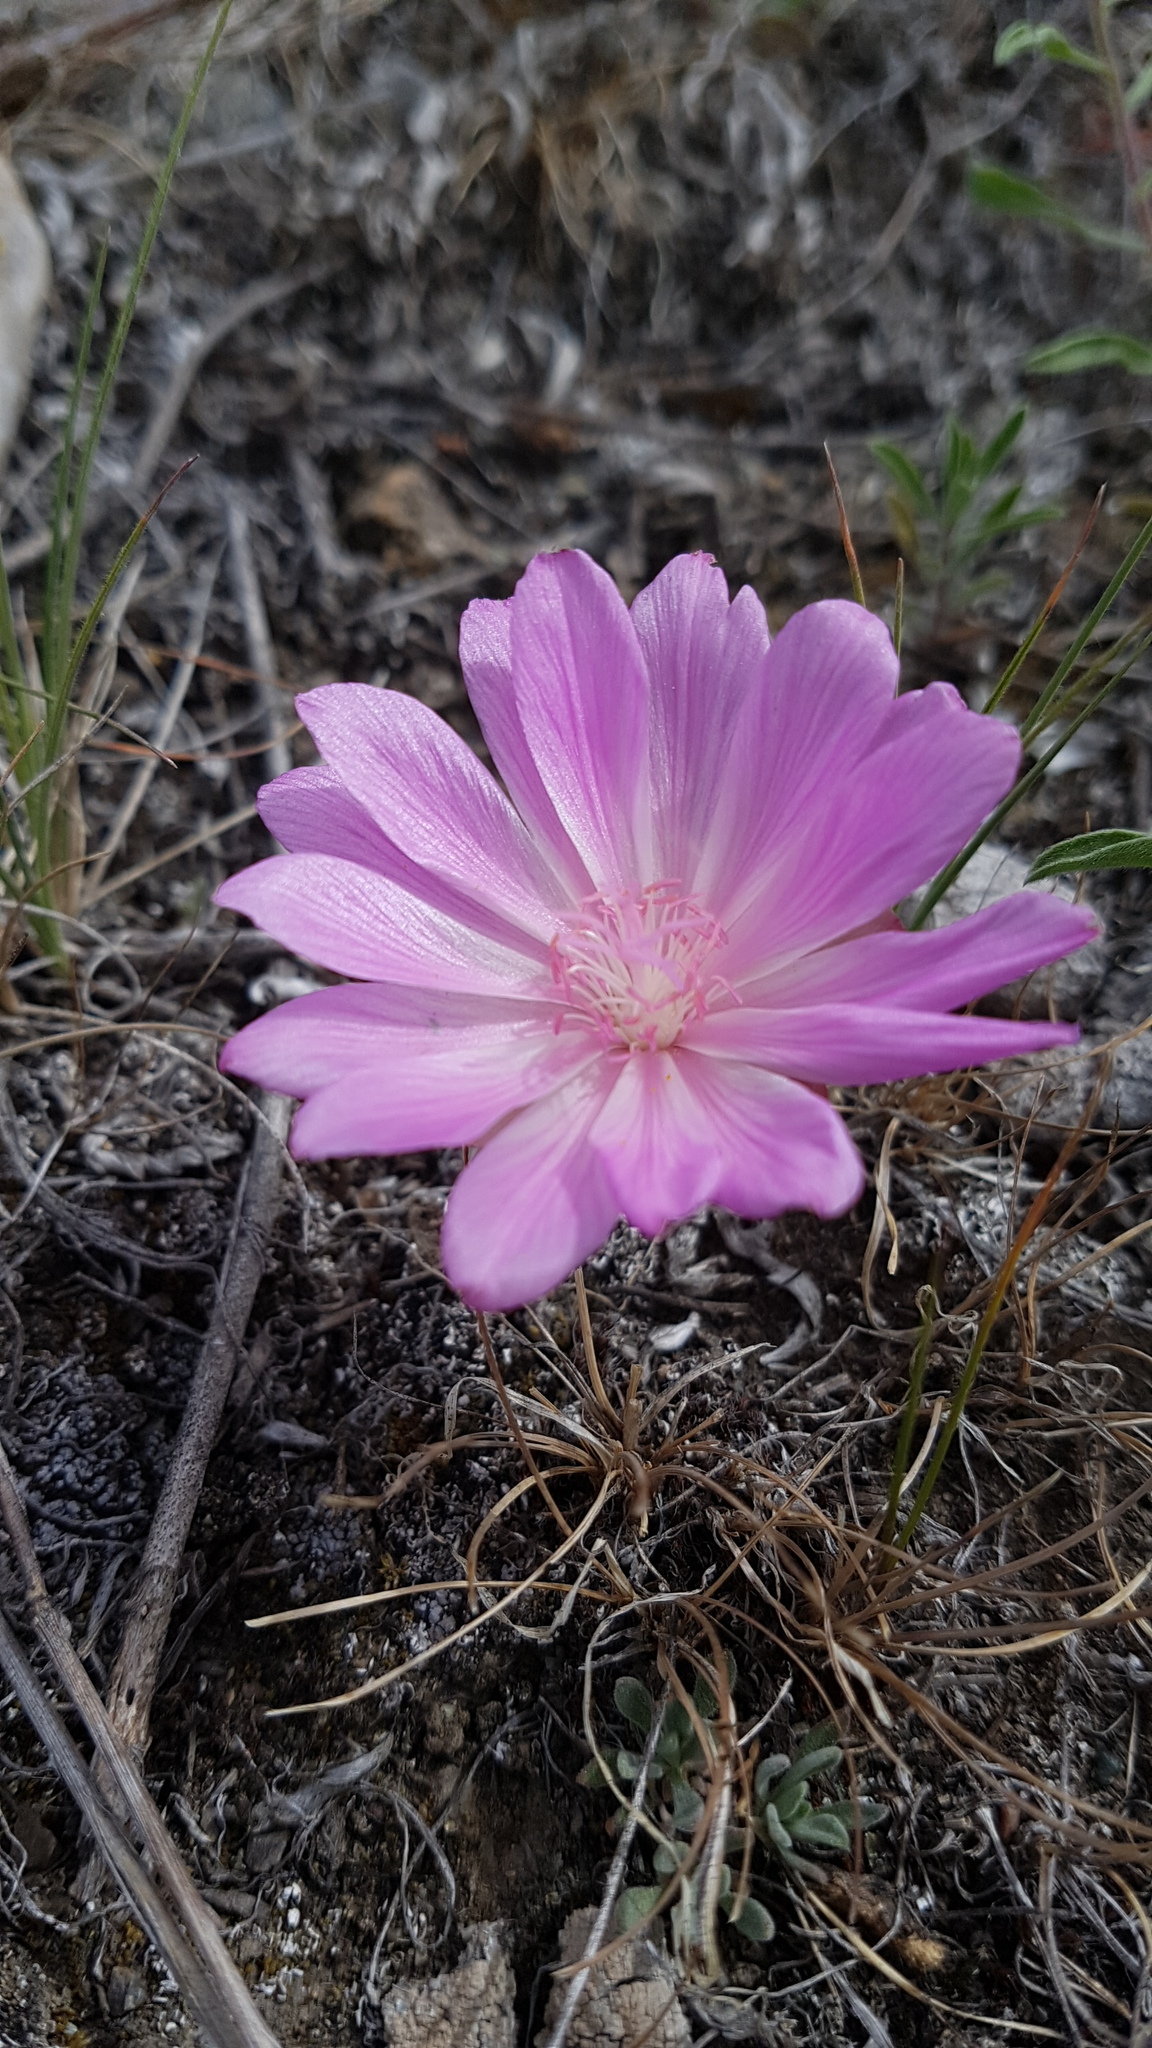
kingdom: Plantae
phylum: Tracheophyta
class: Magnoliopsida
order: Caryophyllales
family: Montiaceae
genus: Lewisia
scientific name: Lewisia rediviva
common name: Bitter-root
